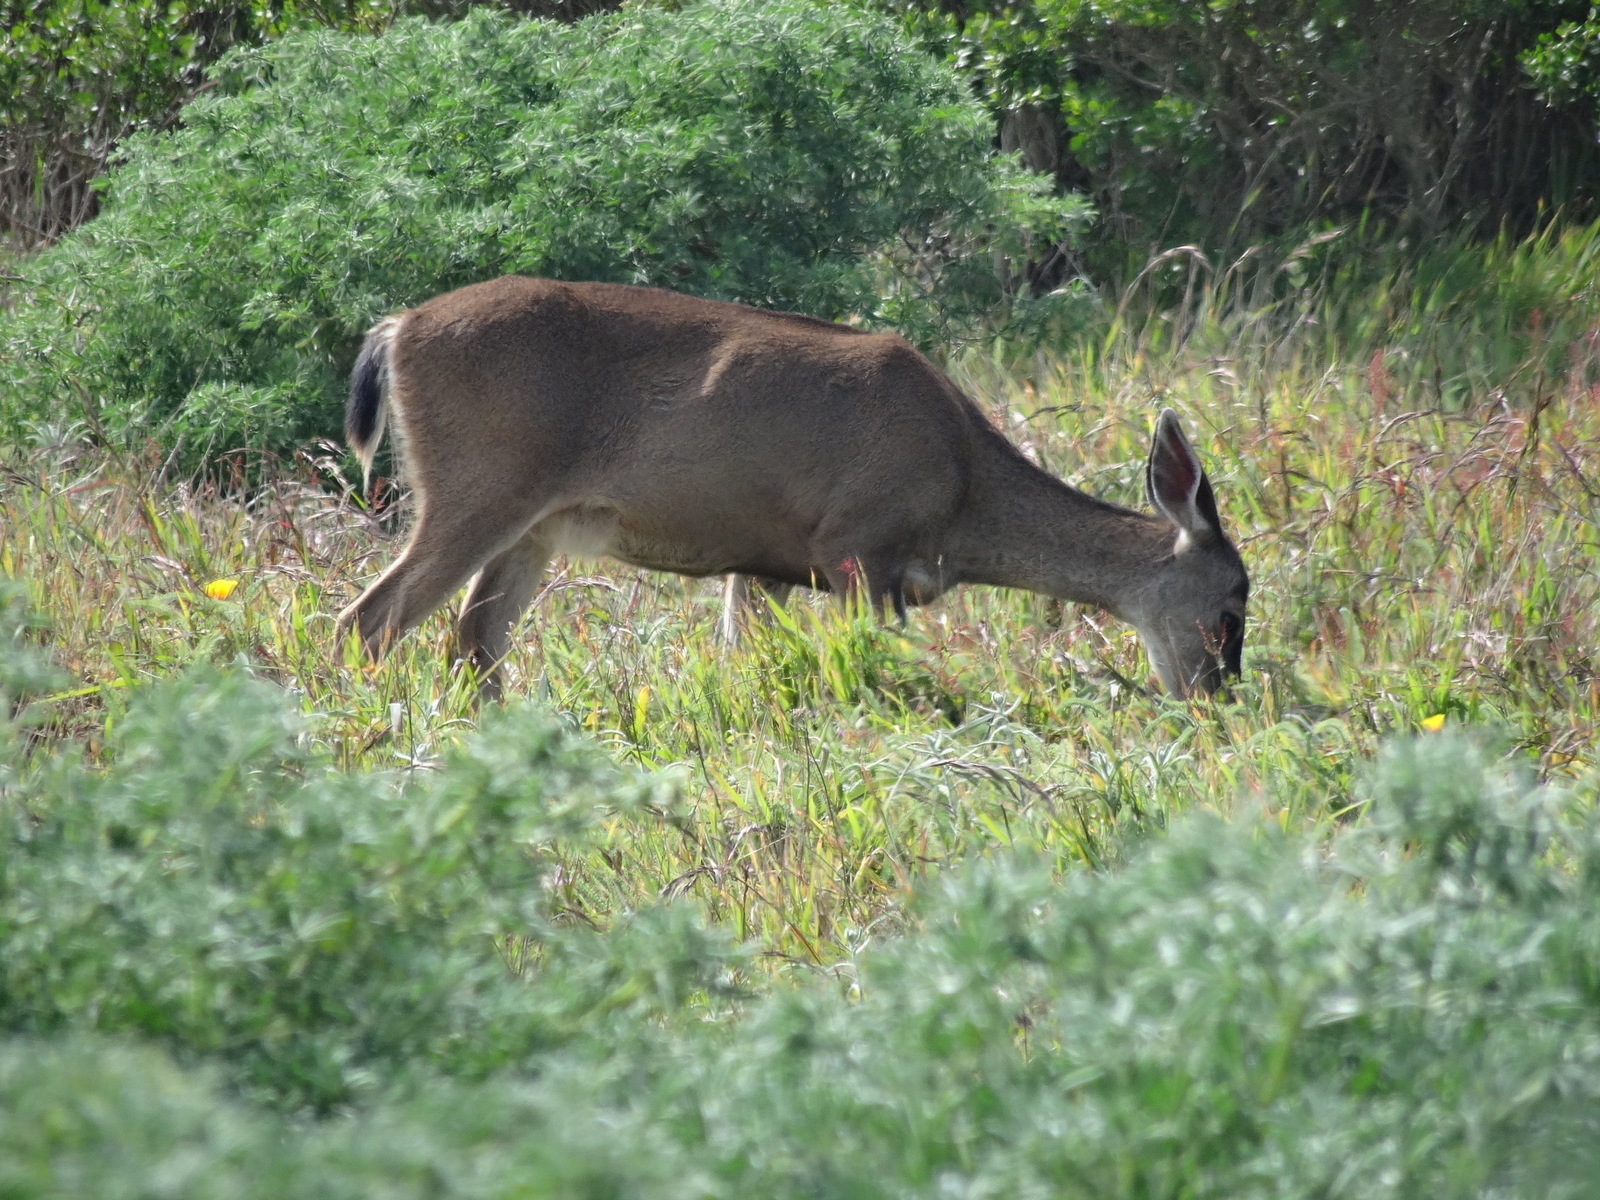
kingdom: Animalia
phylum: Chordata
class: Mammalia
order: Artiodactyla
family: Cervidae
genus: Odocoileus
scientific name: Odocoileus hemionus
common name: Mule deer
